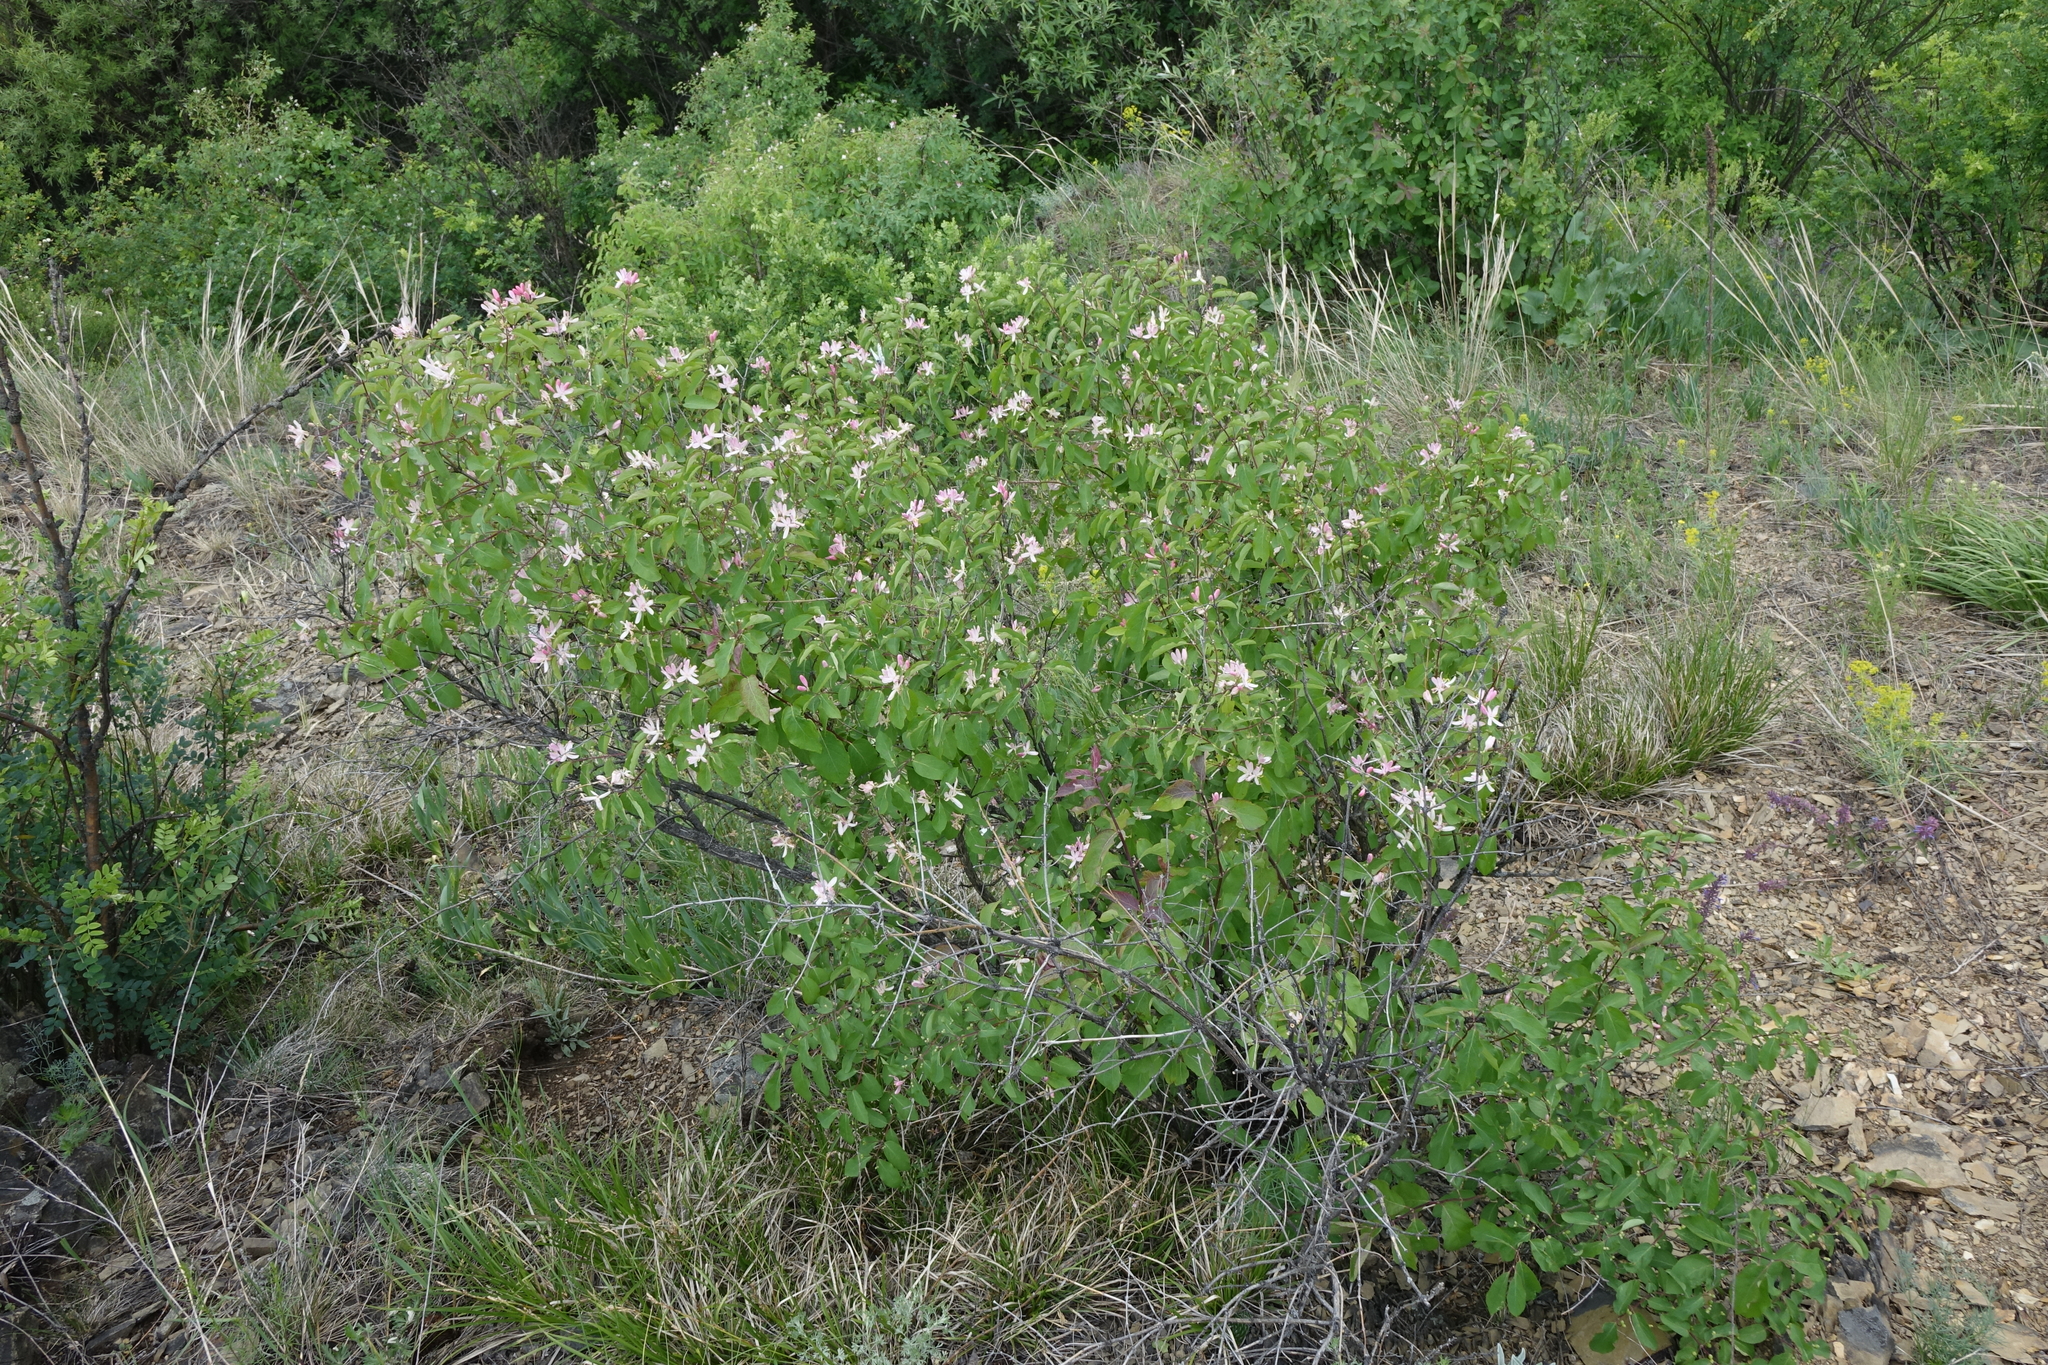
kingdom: Plantae
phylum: Tracheophyta
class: Magnoliopsida
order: Dipsacales
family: Caprifoliaceae
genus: Lonicera
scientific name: Lonicera tatarica
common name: Tatarian honeysuckle
